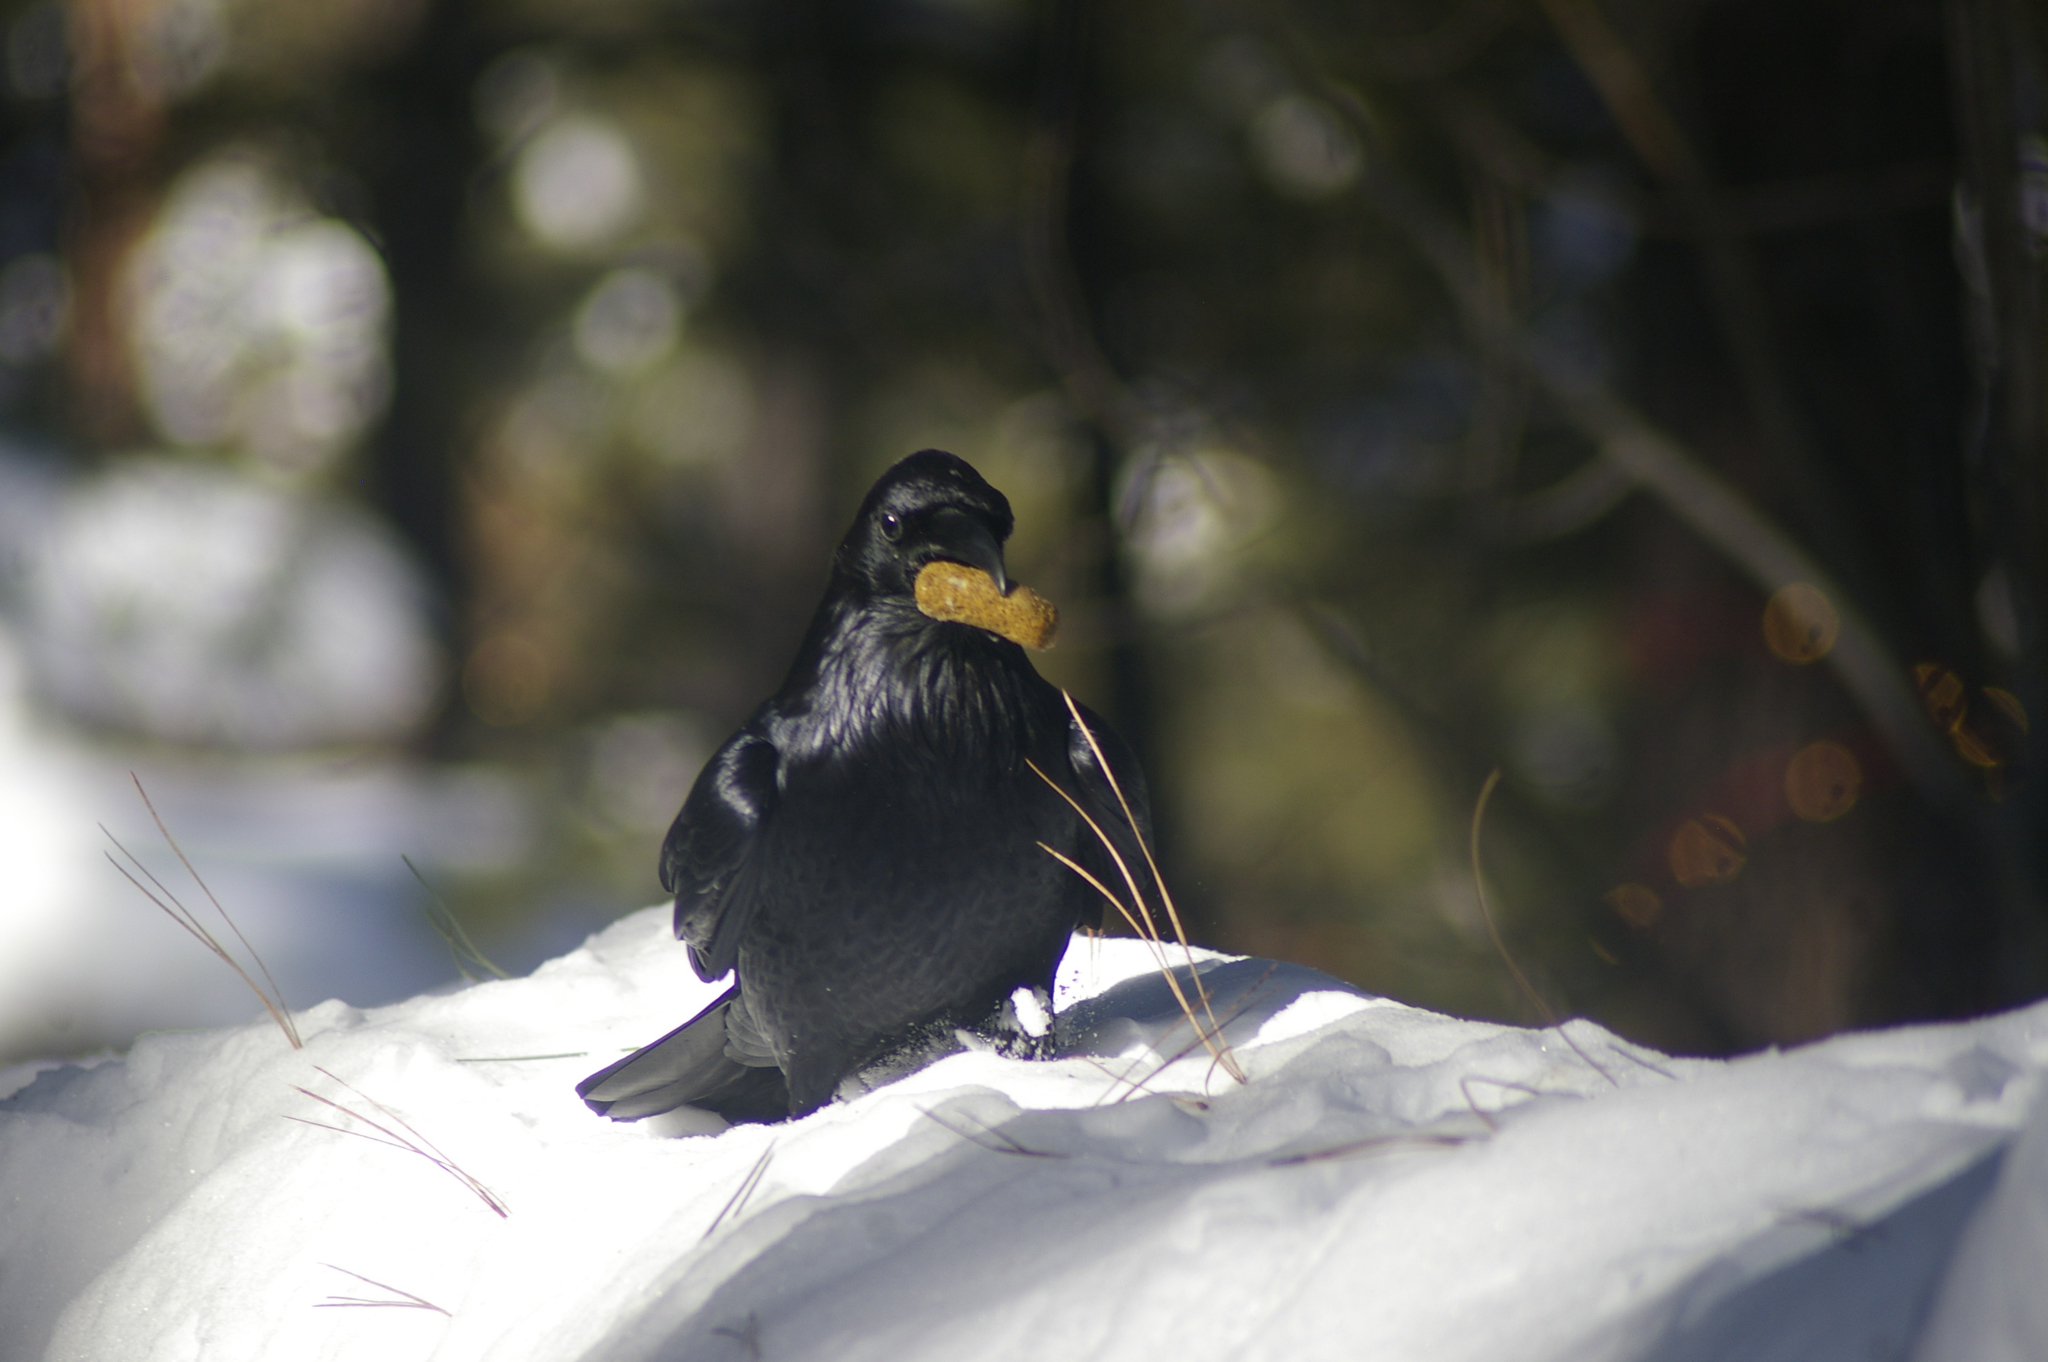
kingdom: Animalia
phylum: Chordata
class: Aves
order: Passeriformes
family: Corvidae
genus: Corvus
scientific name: Corvus corax
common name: Common raven
